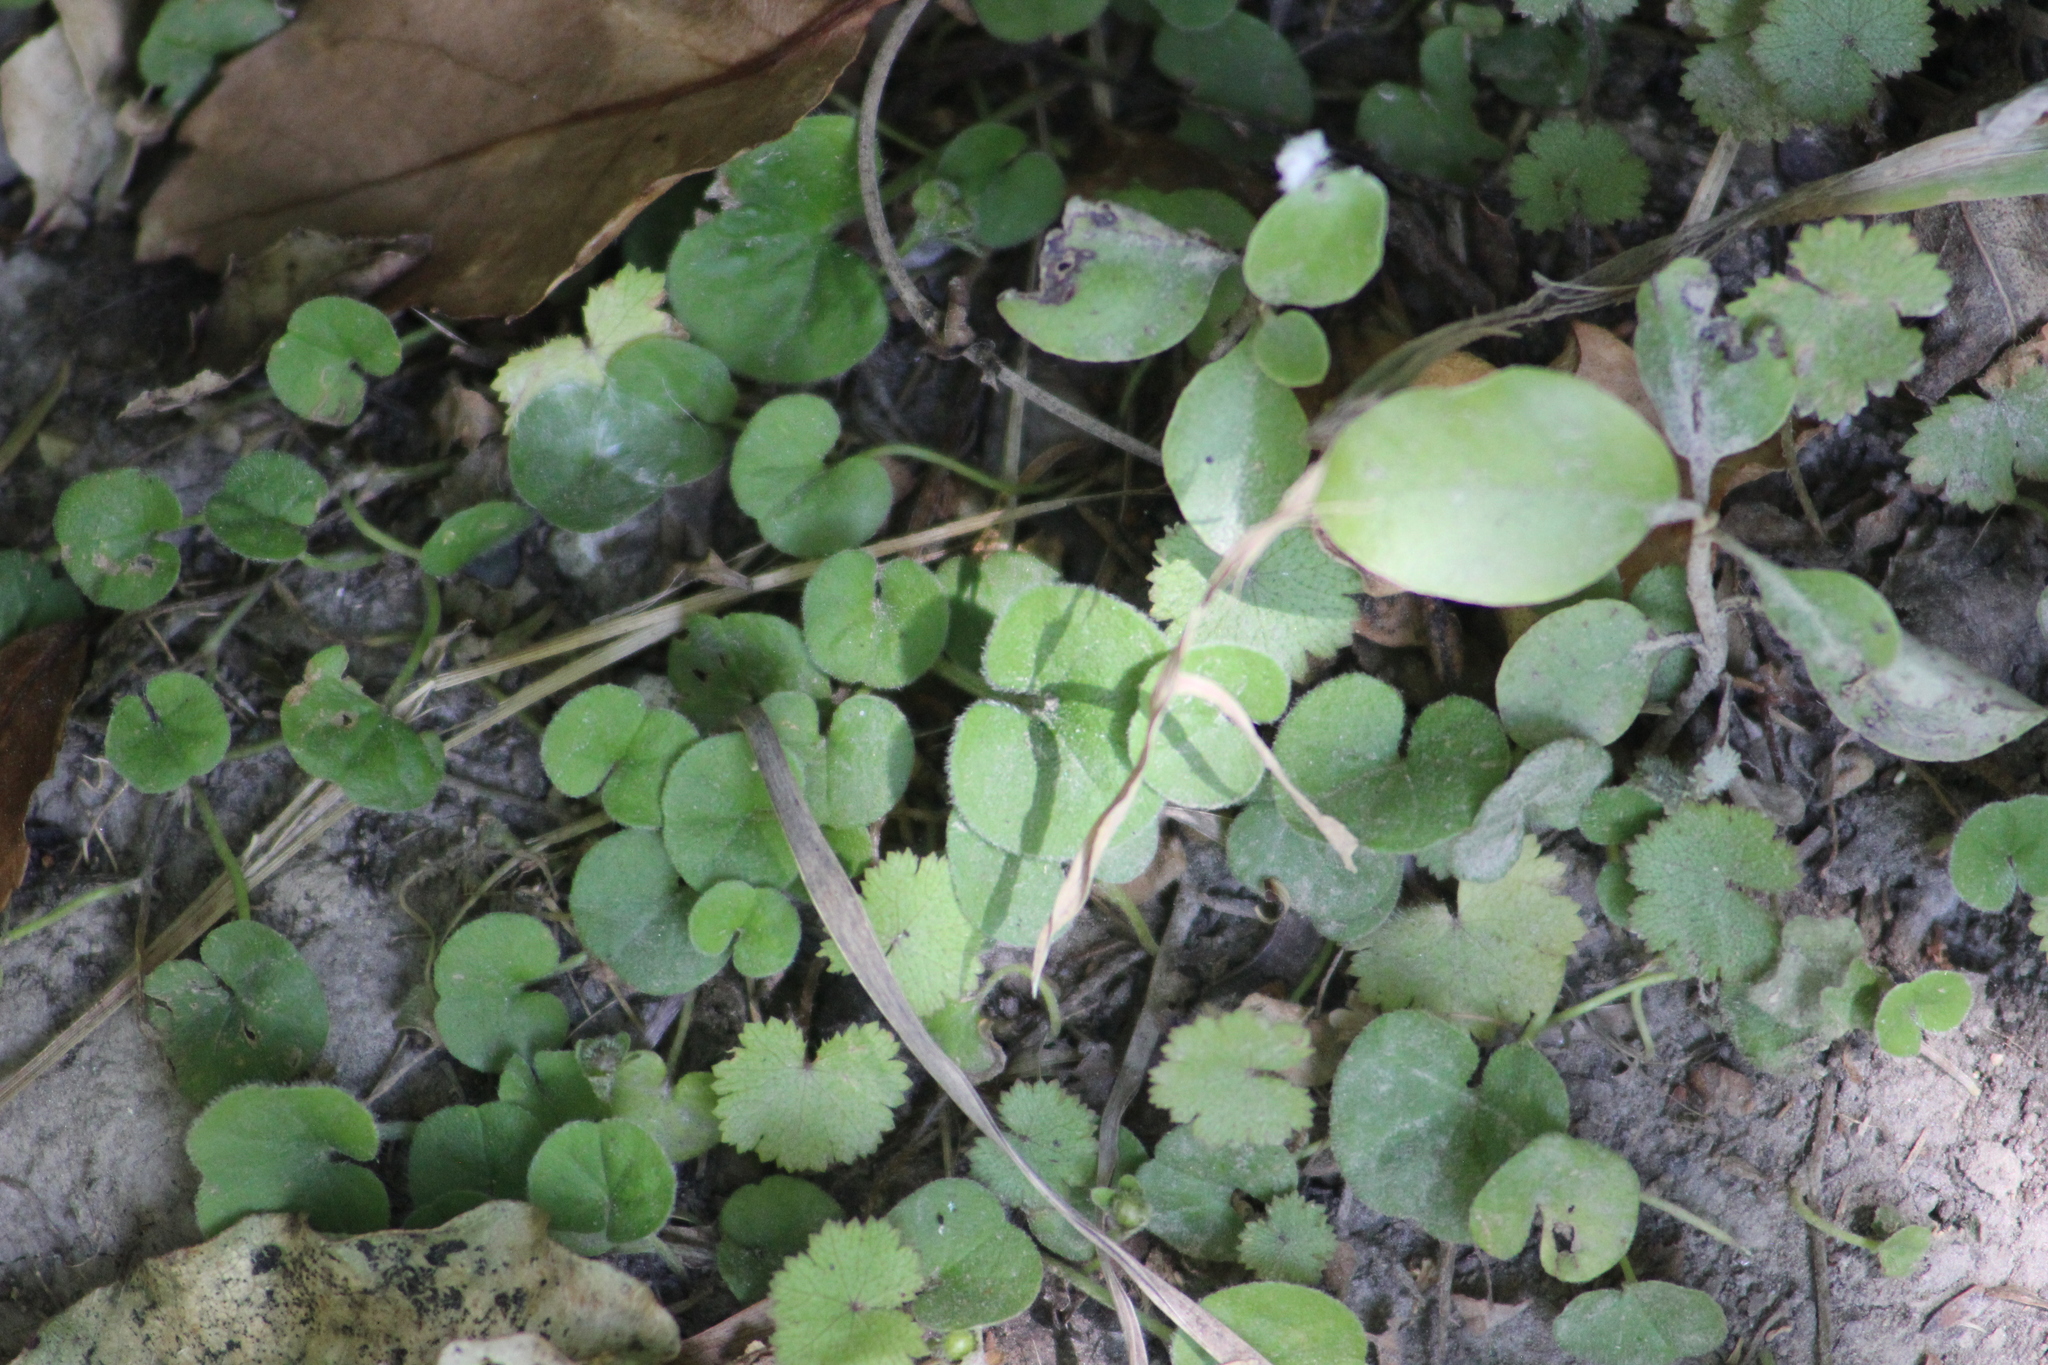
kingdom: Plantae
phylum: Tracheophyta
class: Magnoliopsida
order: Apiales
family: Araliaceae
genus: Hydrocotyle
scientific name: Hydrocotyle moschata
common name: Hairy pennywort
